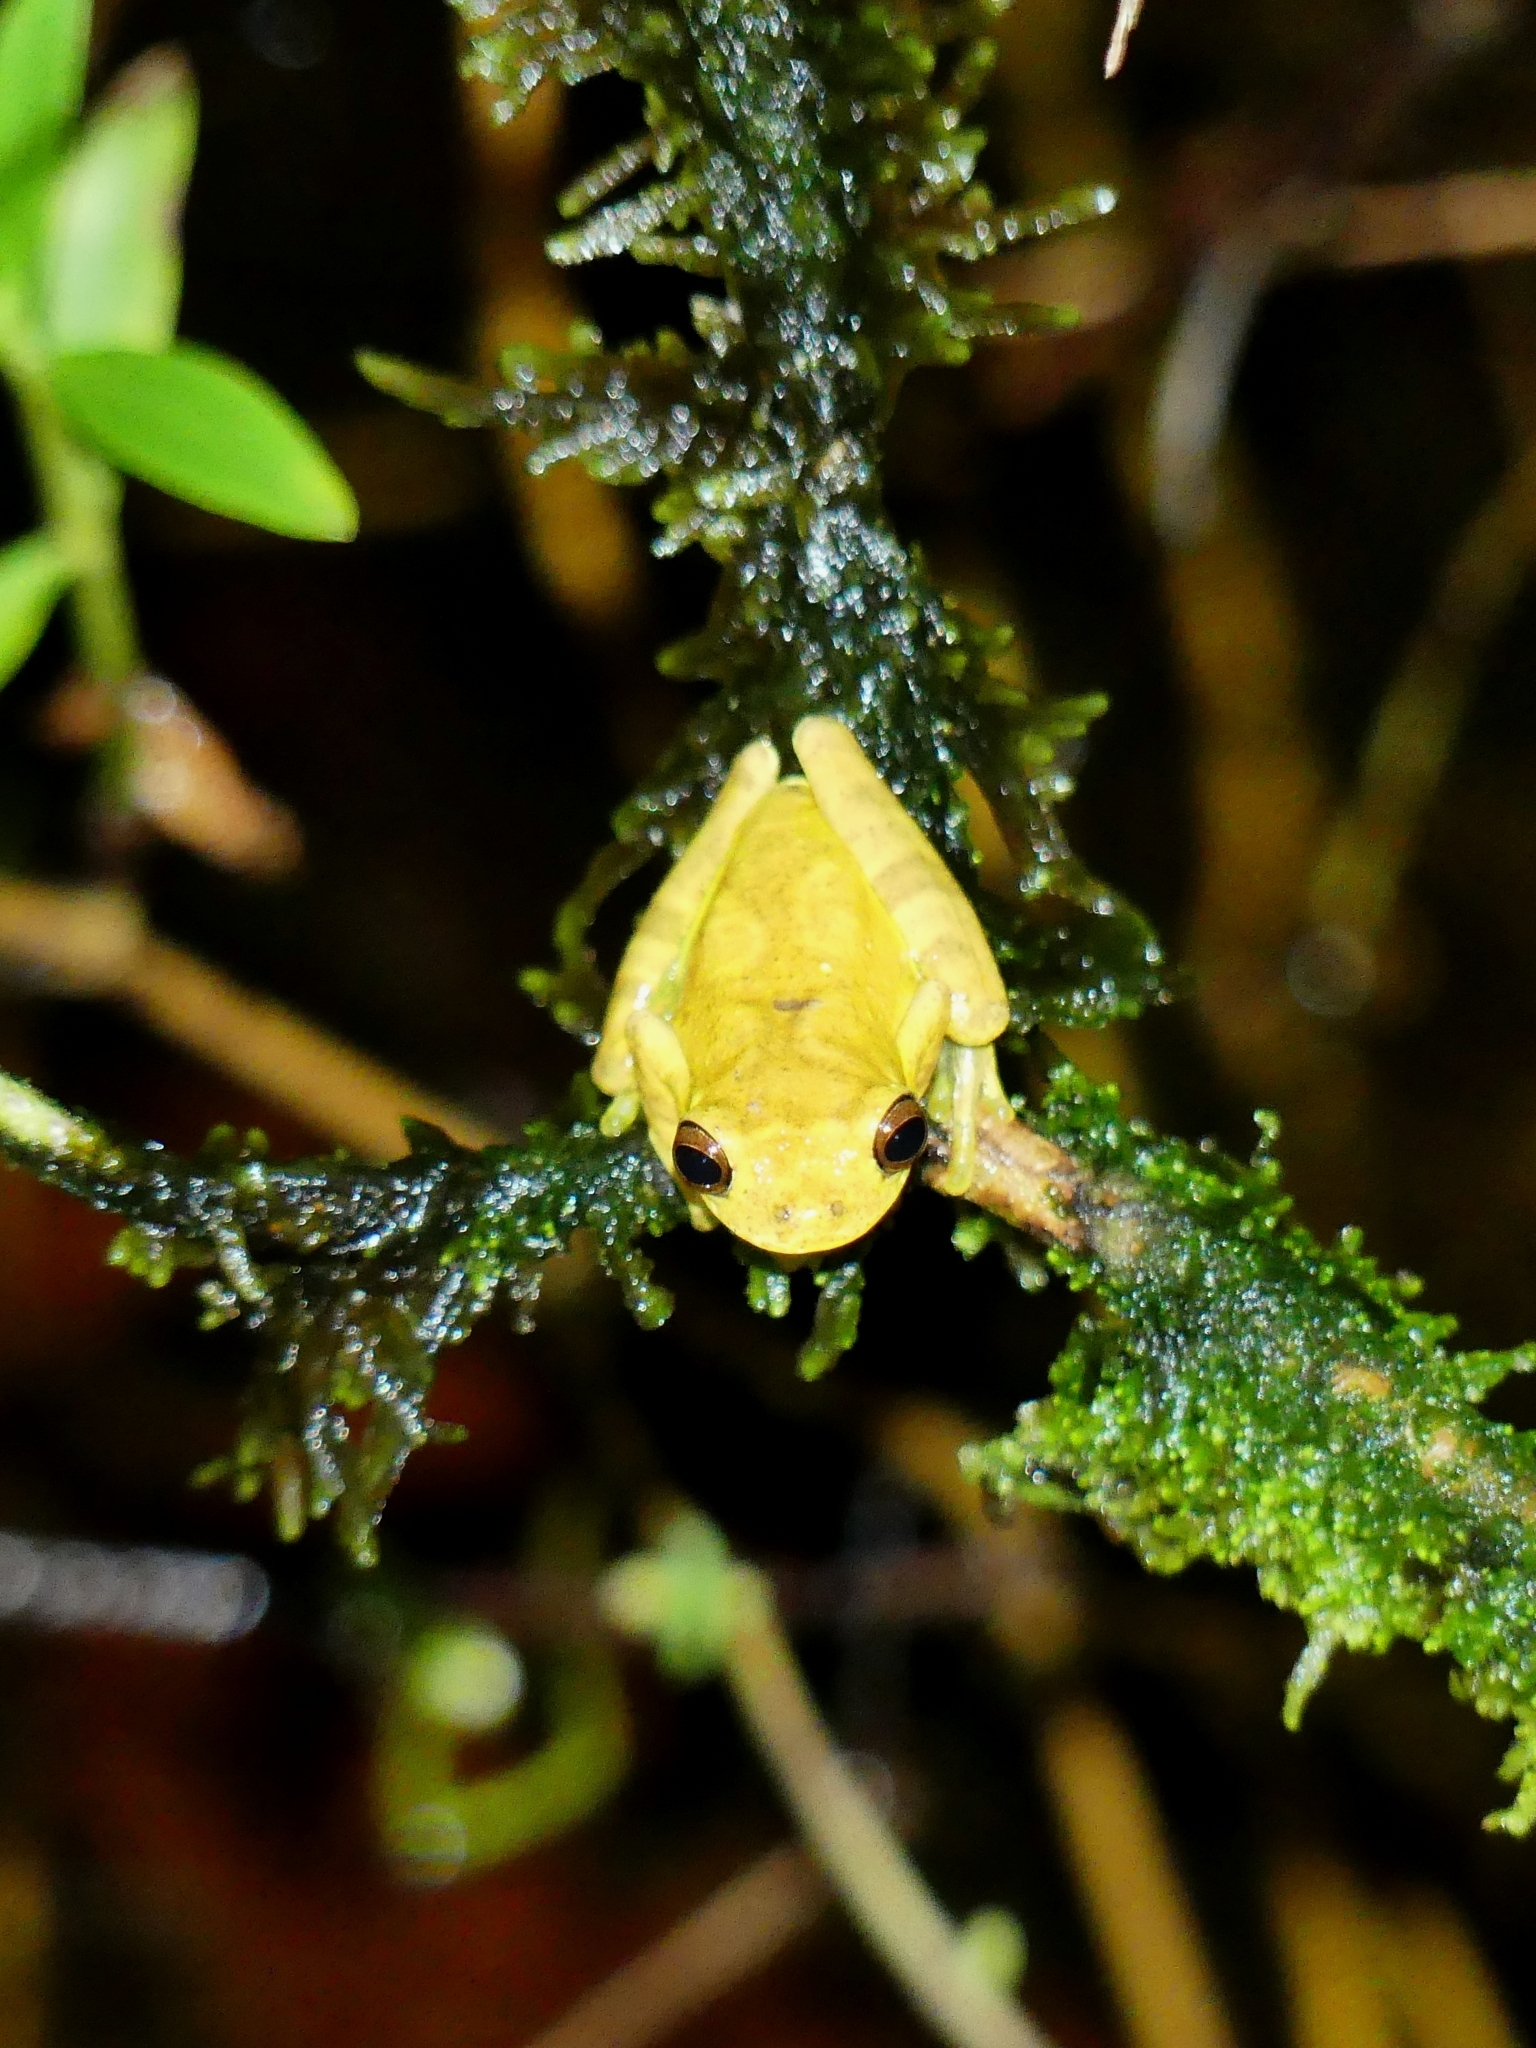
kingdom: Animalia
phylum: Chordata
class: Amphibia
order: Anura
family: Hylidae
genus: Dendropsophus
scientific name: Dendropsophus minutus
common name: Lesser treefrog
